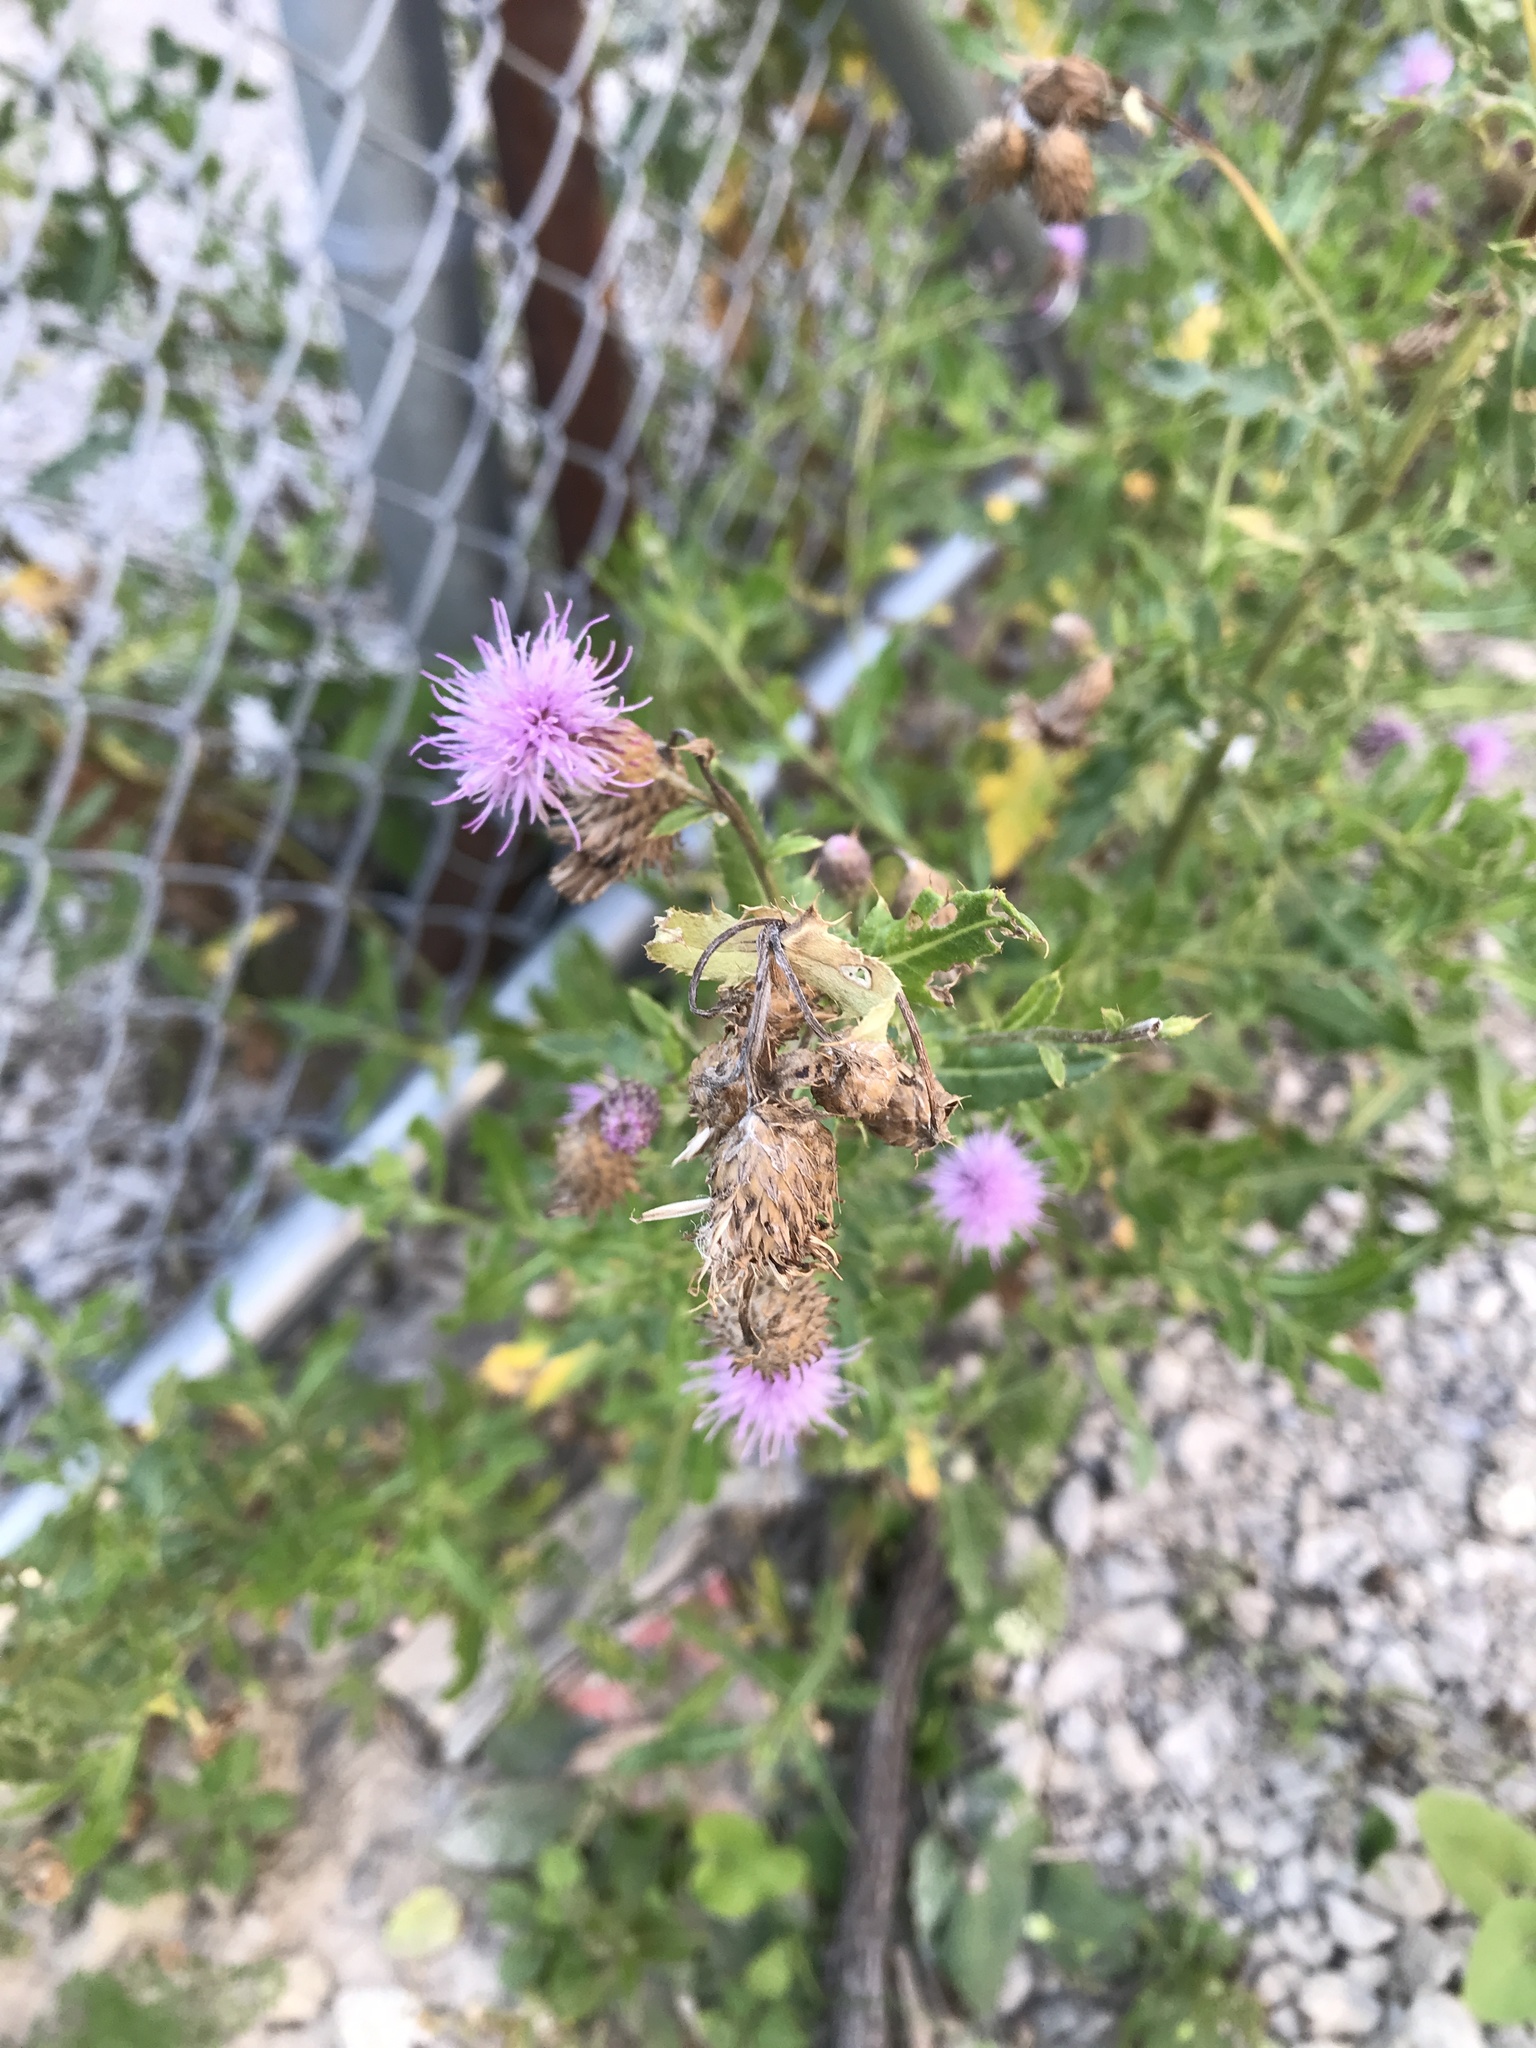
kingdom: Plantae
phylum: Tracheophyta
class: Magnoliopsida
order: Asterales
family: Asteraceae
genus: Cirsium
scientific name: Cirsium arvense
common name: Creeping thistle
